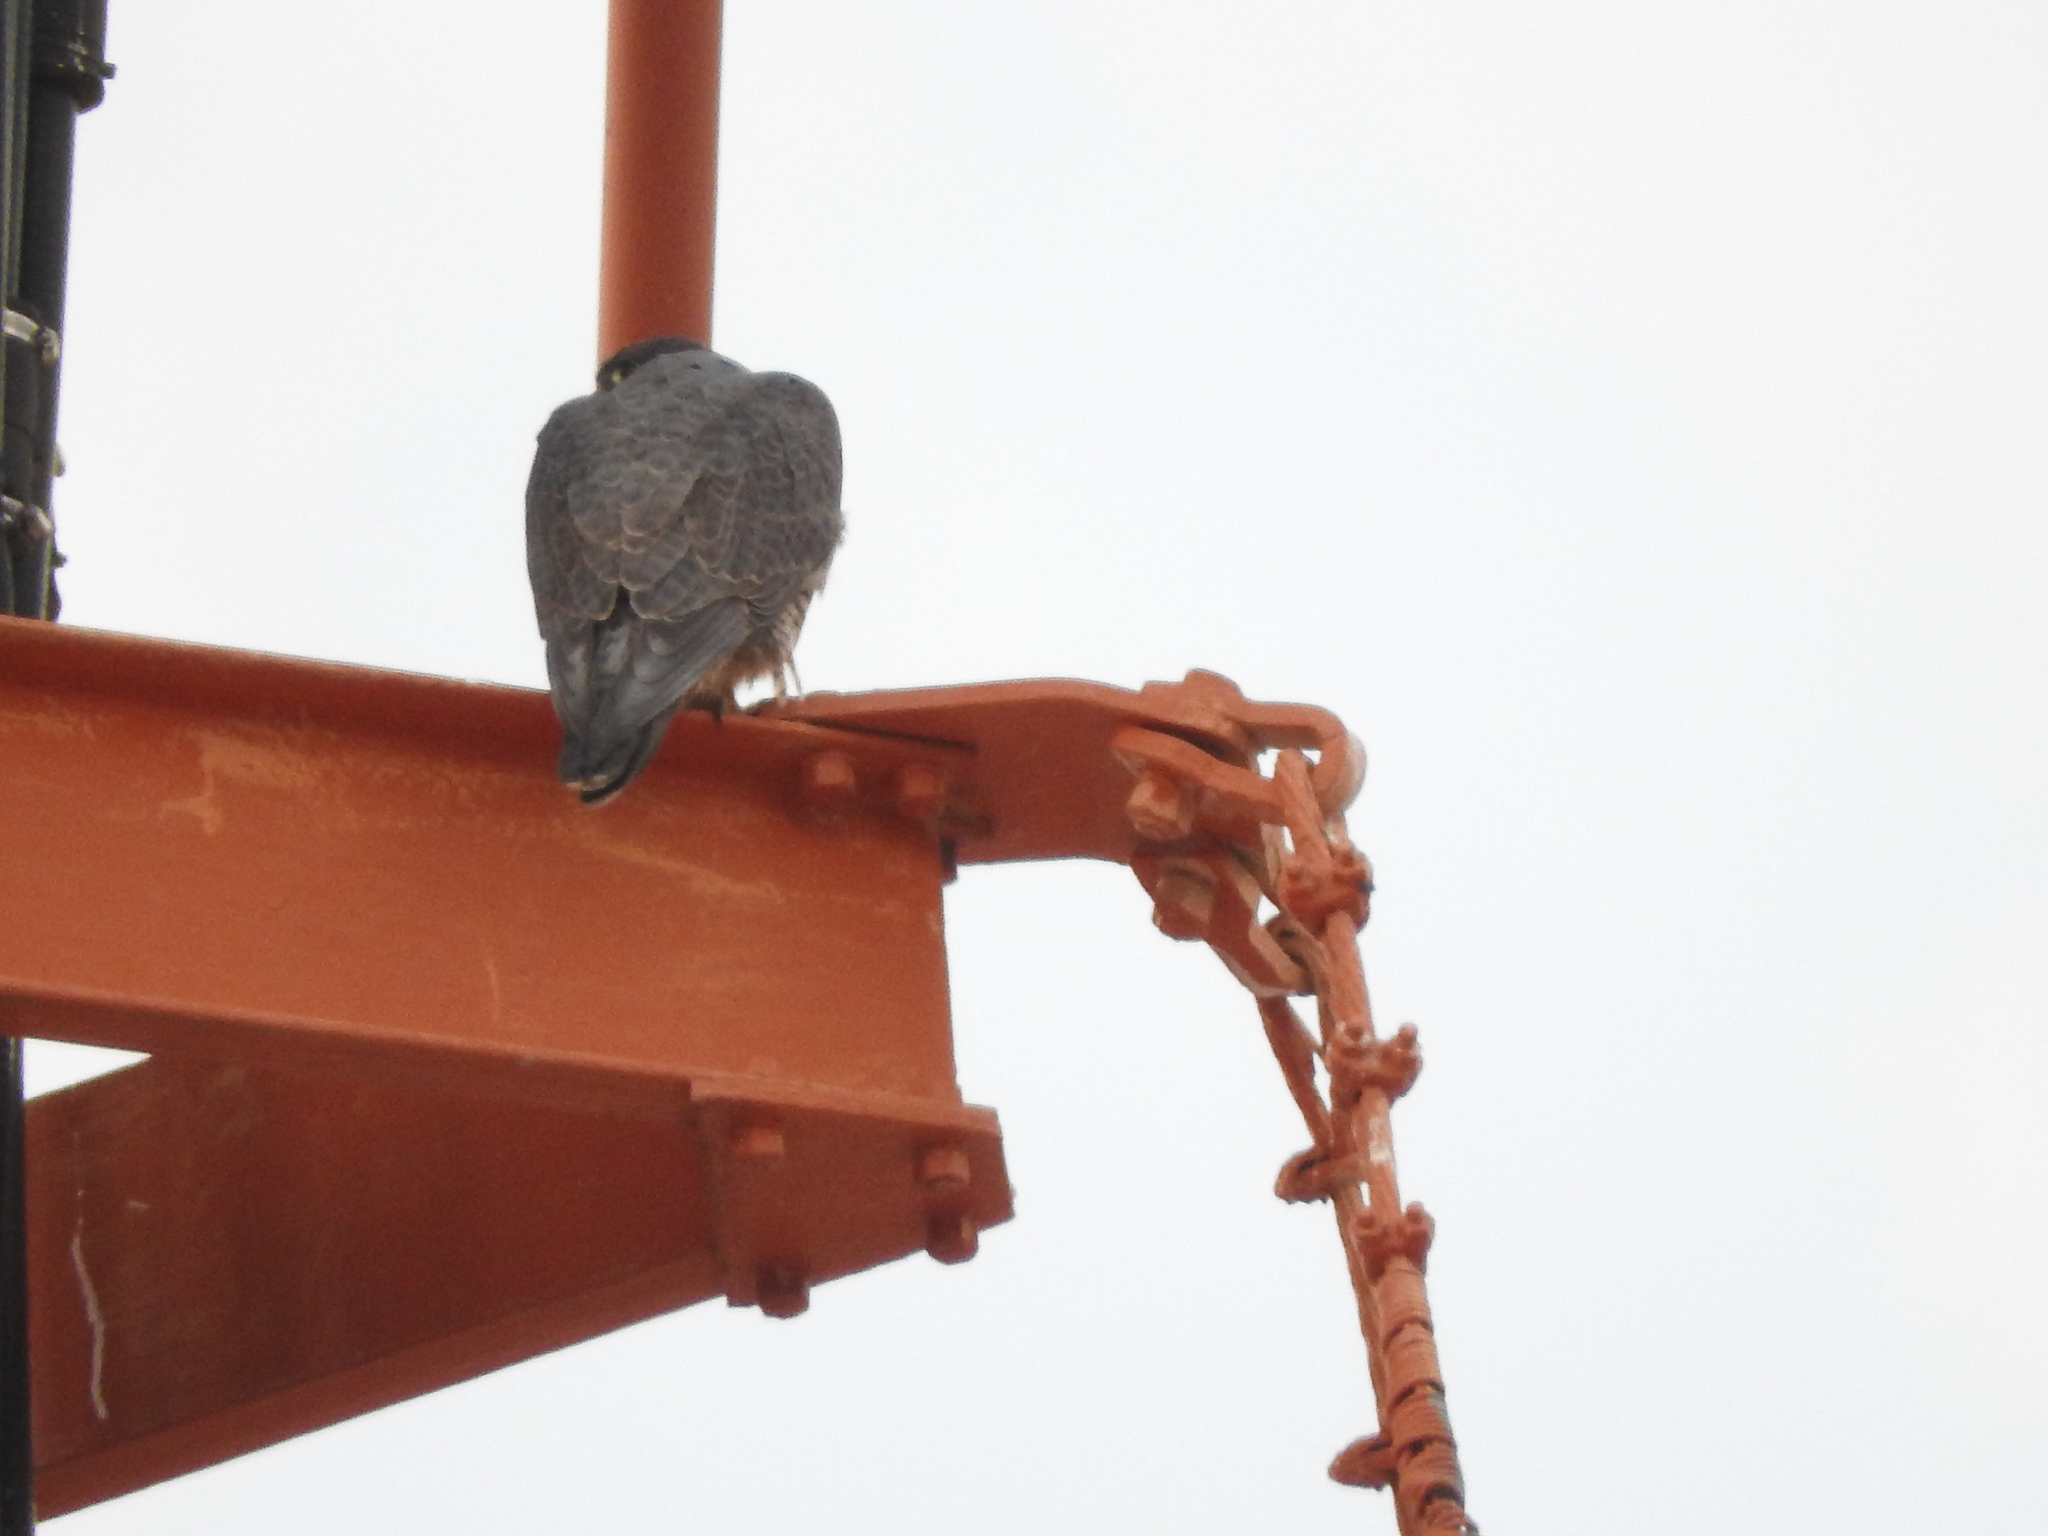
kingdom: Animalia
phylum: Chordata
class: Aves
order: Falconiformes
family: Falconidae
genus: Falco
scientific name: Falco peregrinus
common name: Peregrine falcon
